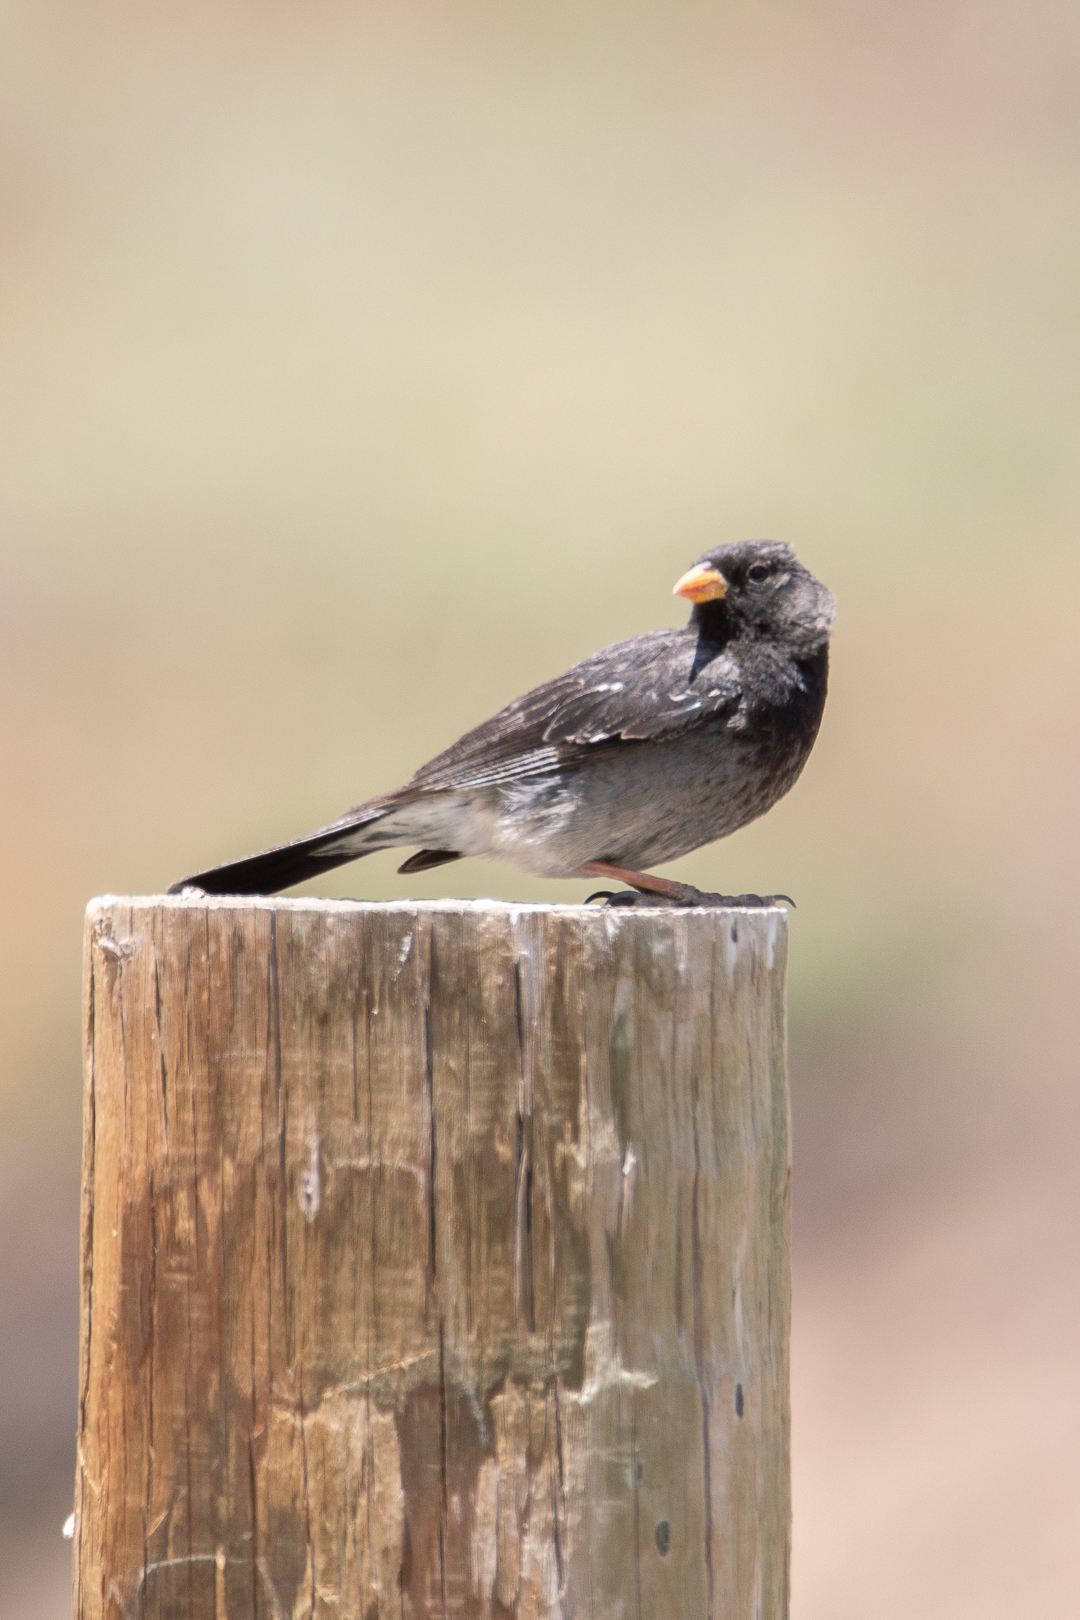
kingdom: Animalia
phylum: Chordata
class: Aves
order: Passeriformes
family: Thraupidae
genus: Rhopospina
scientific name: Rhopospina fruticeti
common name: Mourning sierra finch
